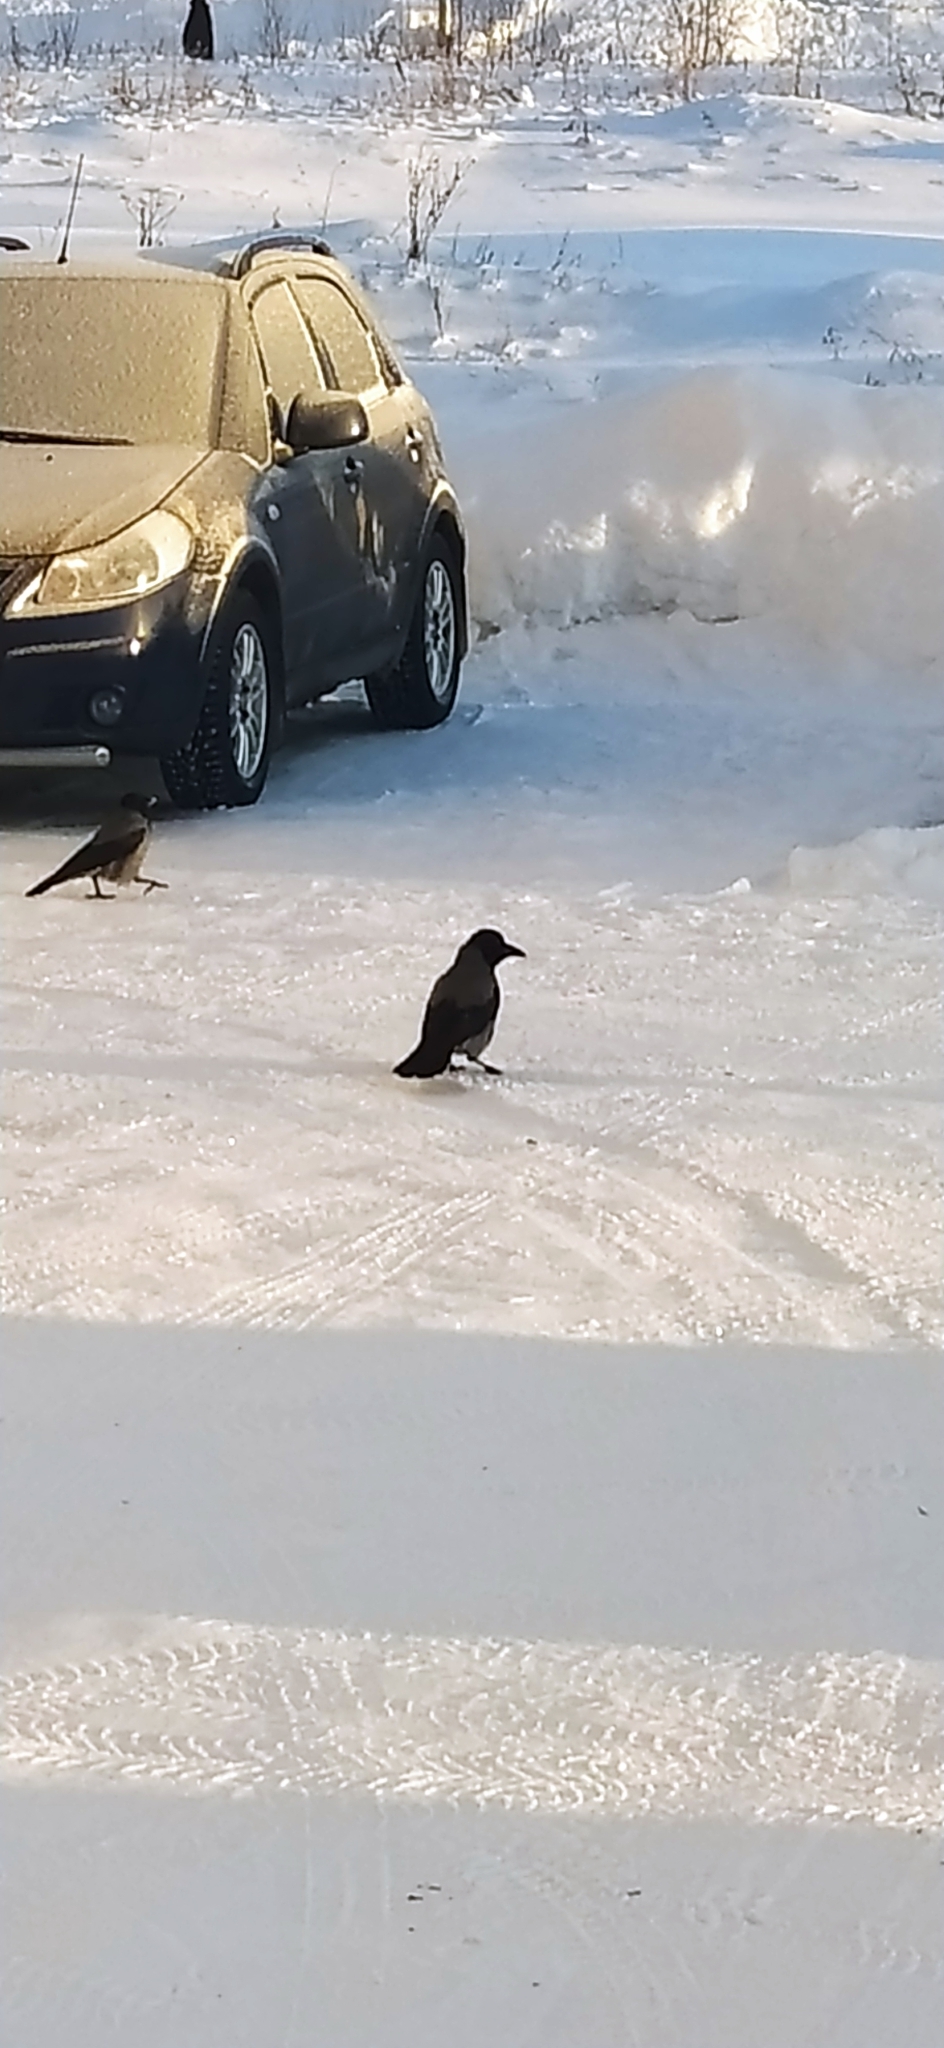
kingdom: Animalia
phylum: Chordata
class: Aves
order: Passeriformes
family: Corvidae
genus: Corvus
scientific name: Corvus cornix
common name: Hooded crow
